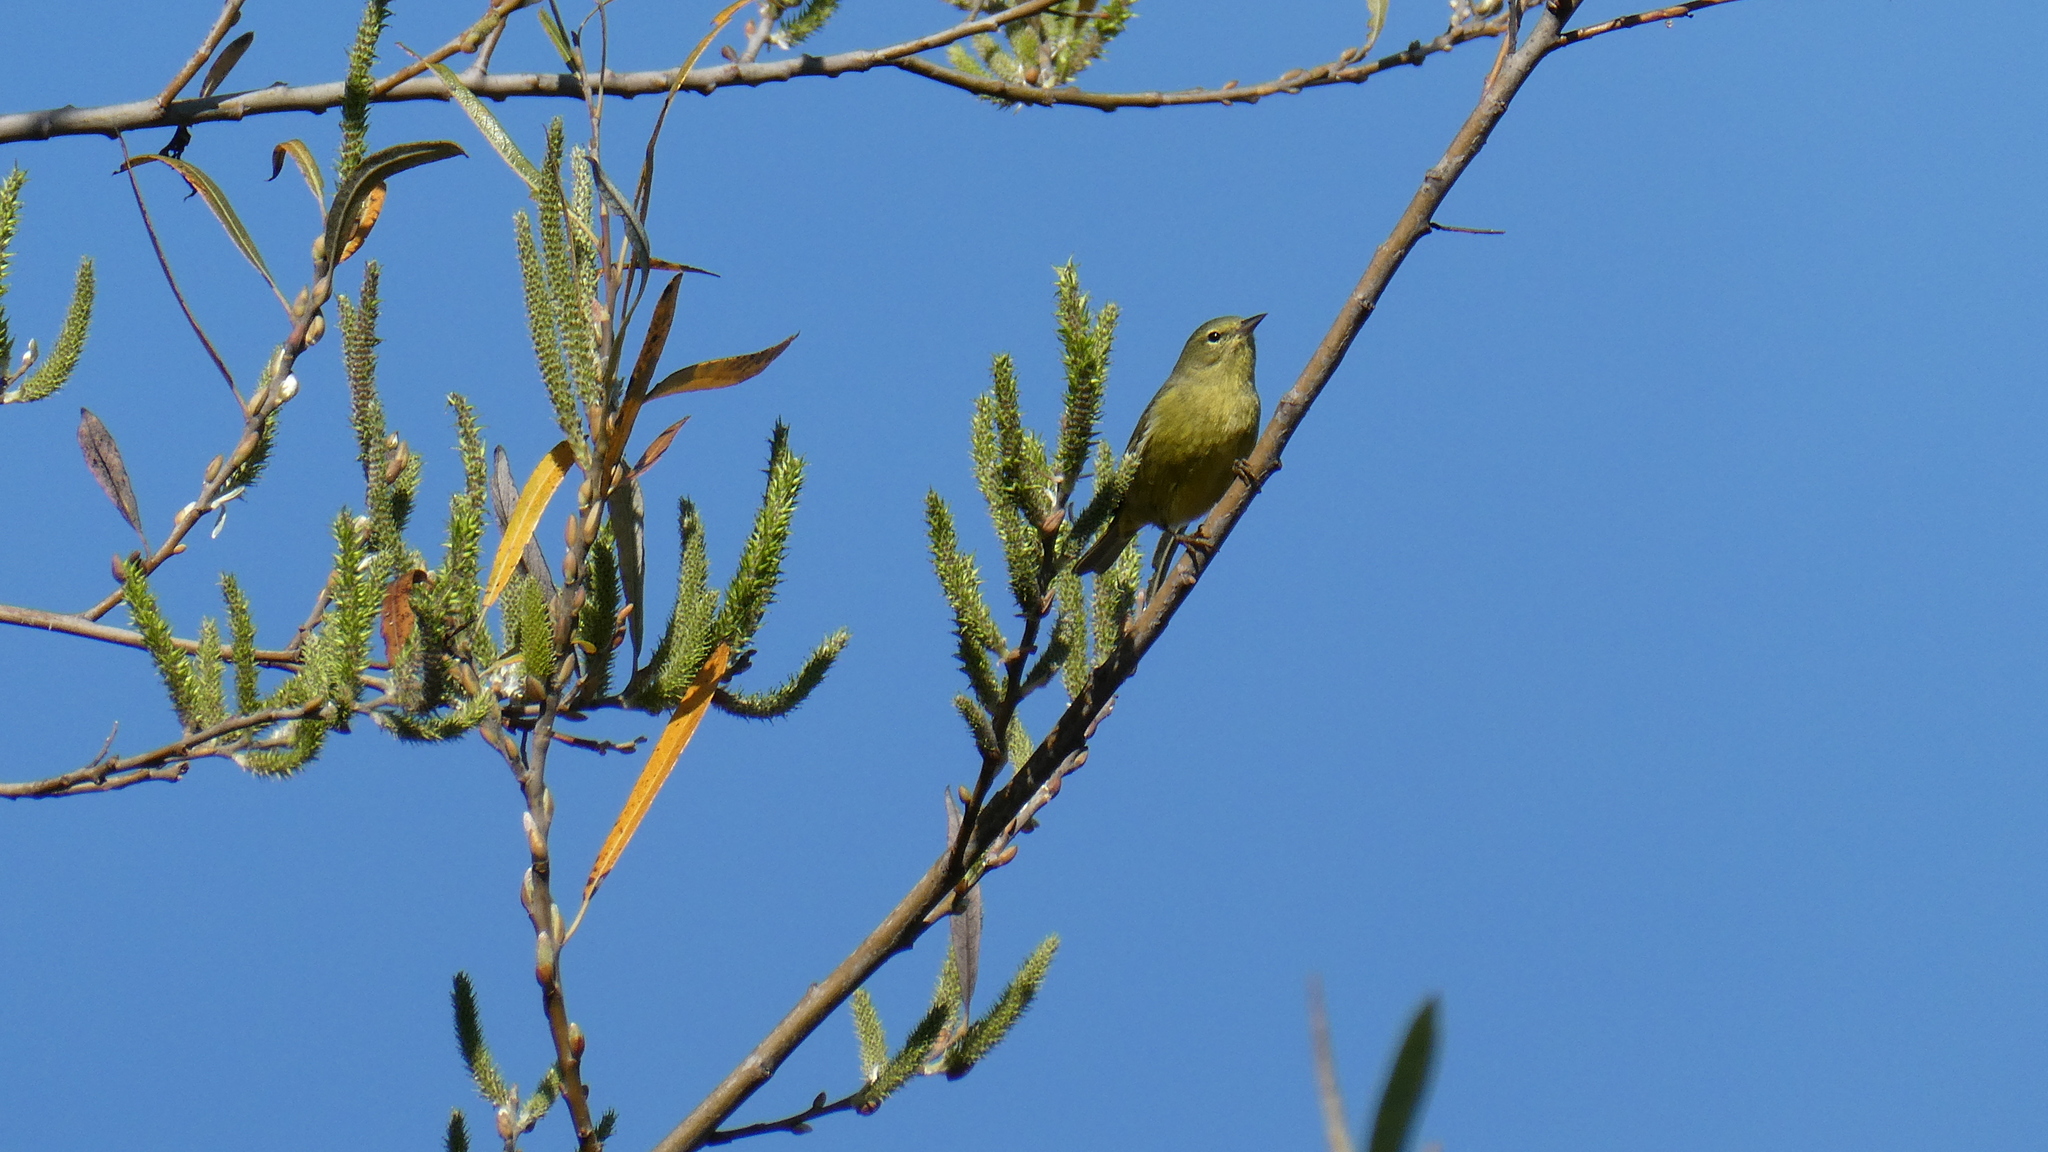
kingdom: Animalia
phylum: Chordata
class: Aves
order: Passeriformes
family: Parulidae
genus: Leiothlypis
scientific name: Leiothlypis celata
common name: Orange-crowned warbler
